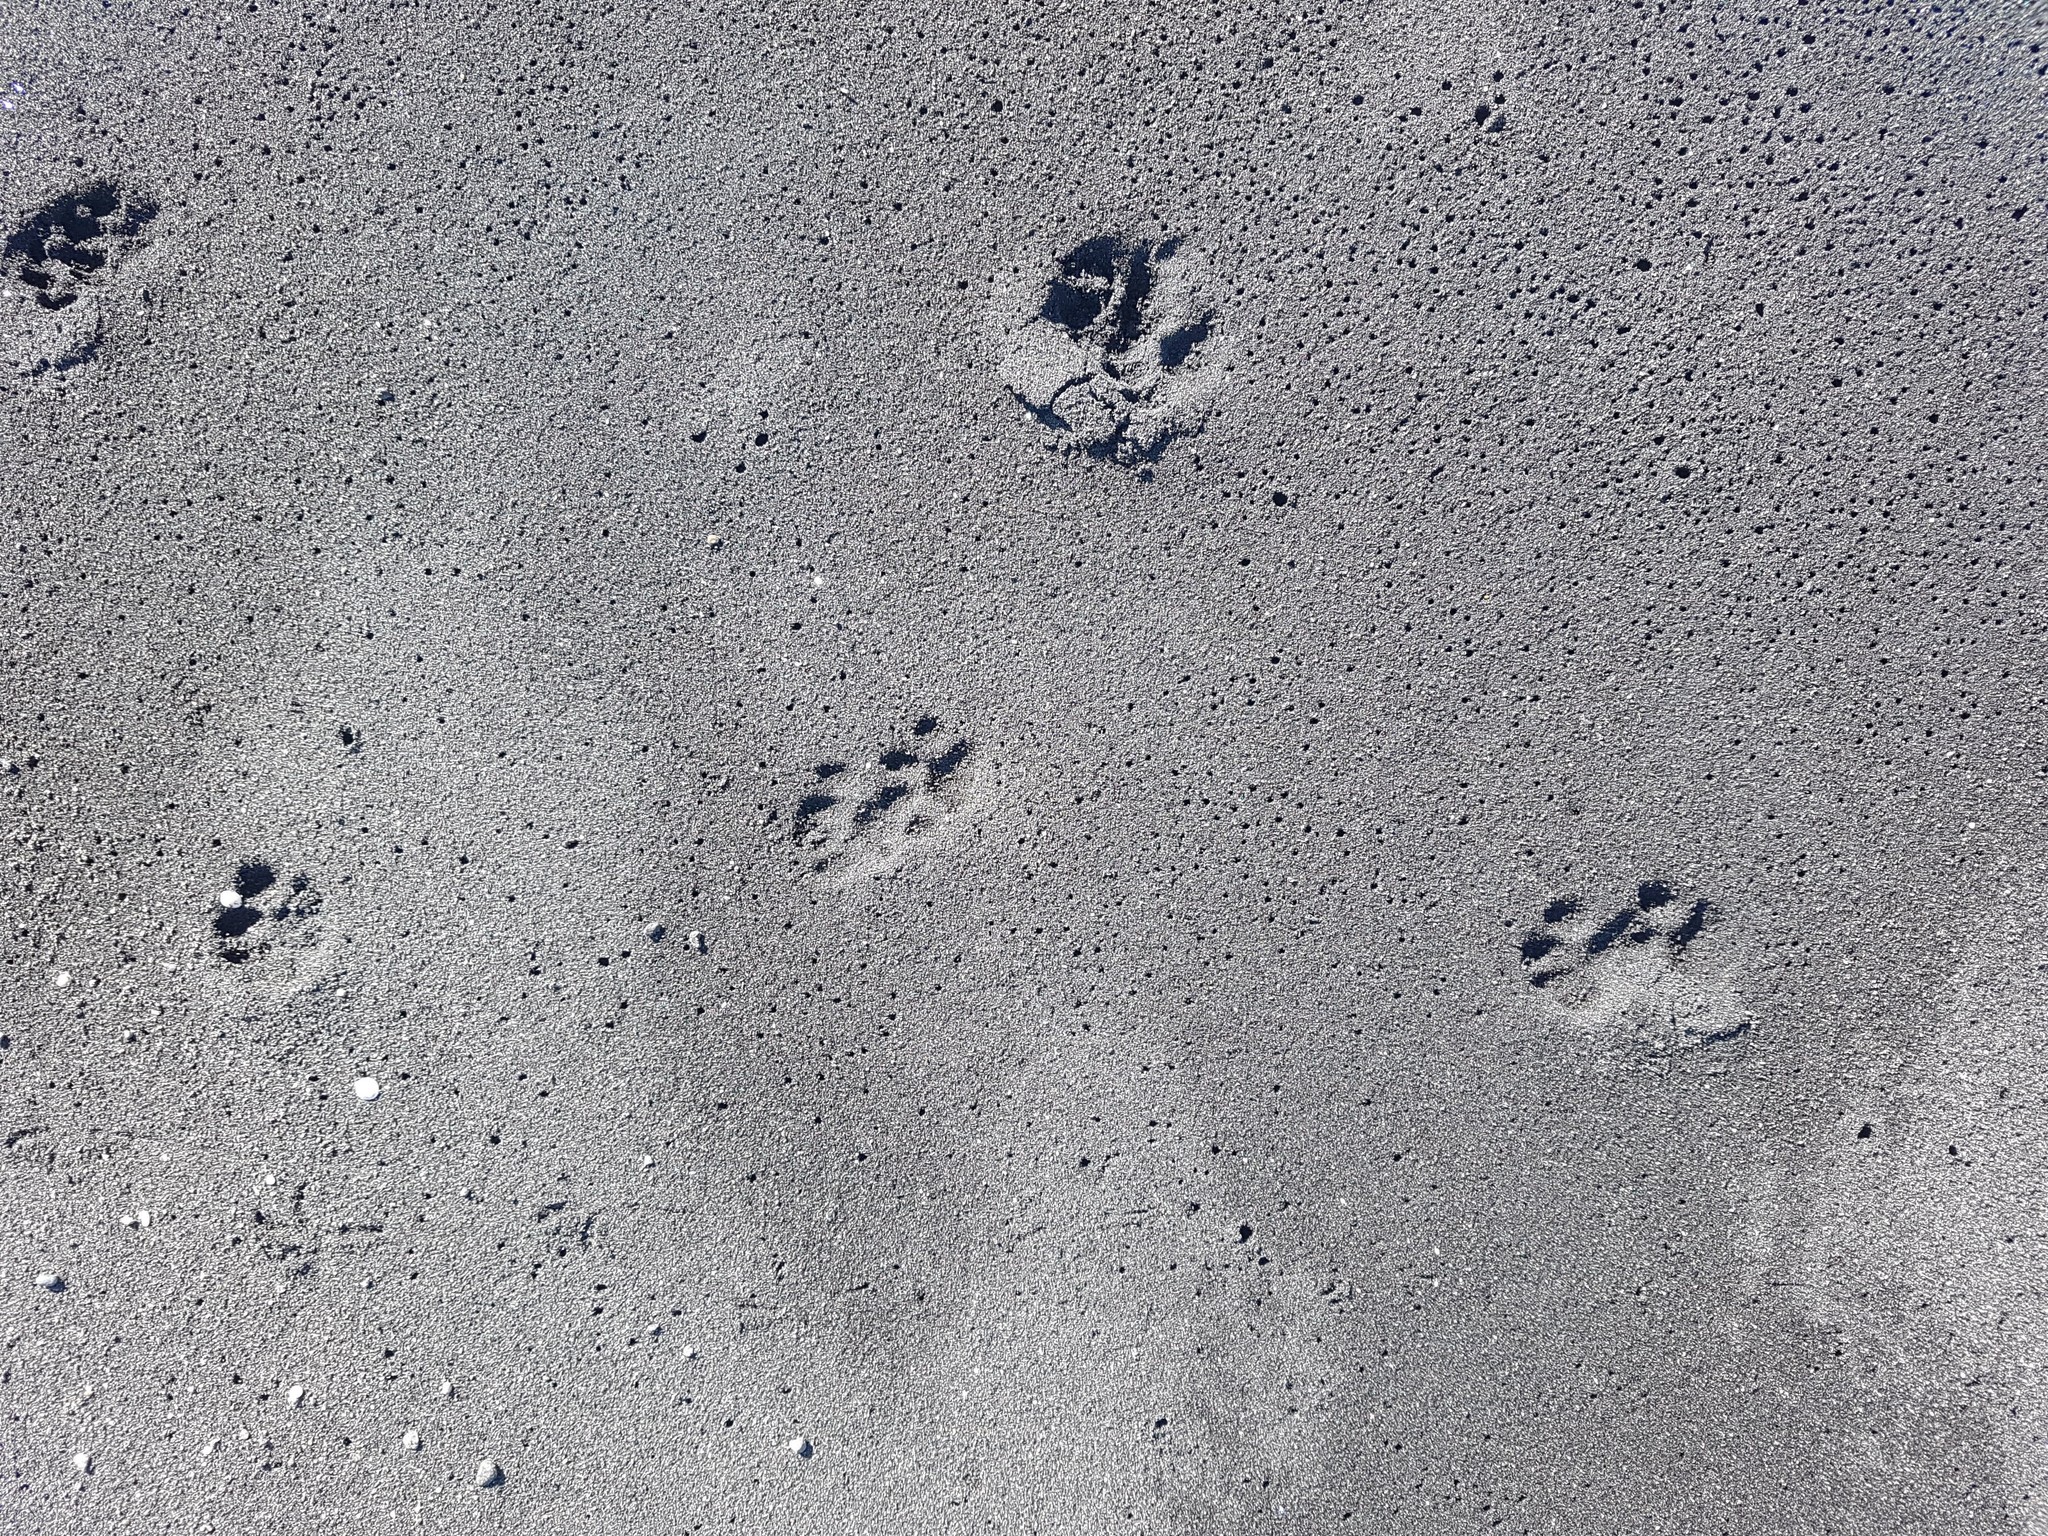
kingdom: Animalia
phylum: Chordata
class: Mammalia
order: Carnivora
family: Felidae
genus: Felis
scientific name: Felis catus
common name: Domestic cat
